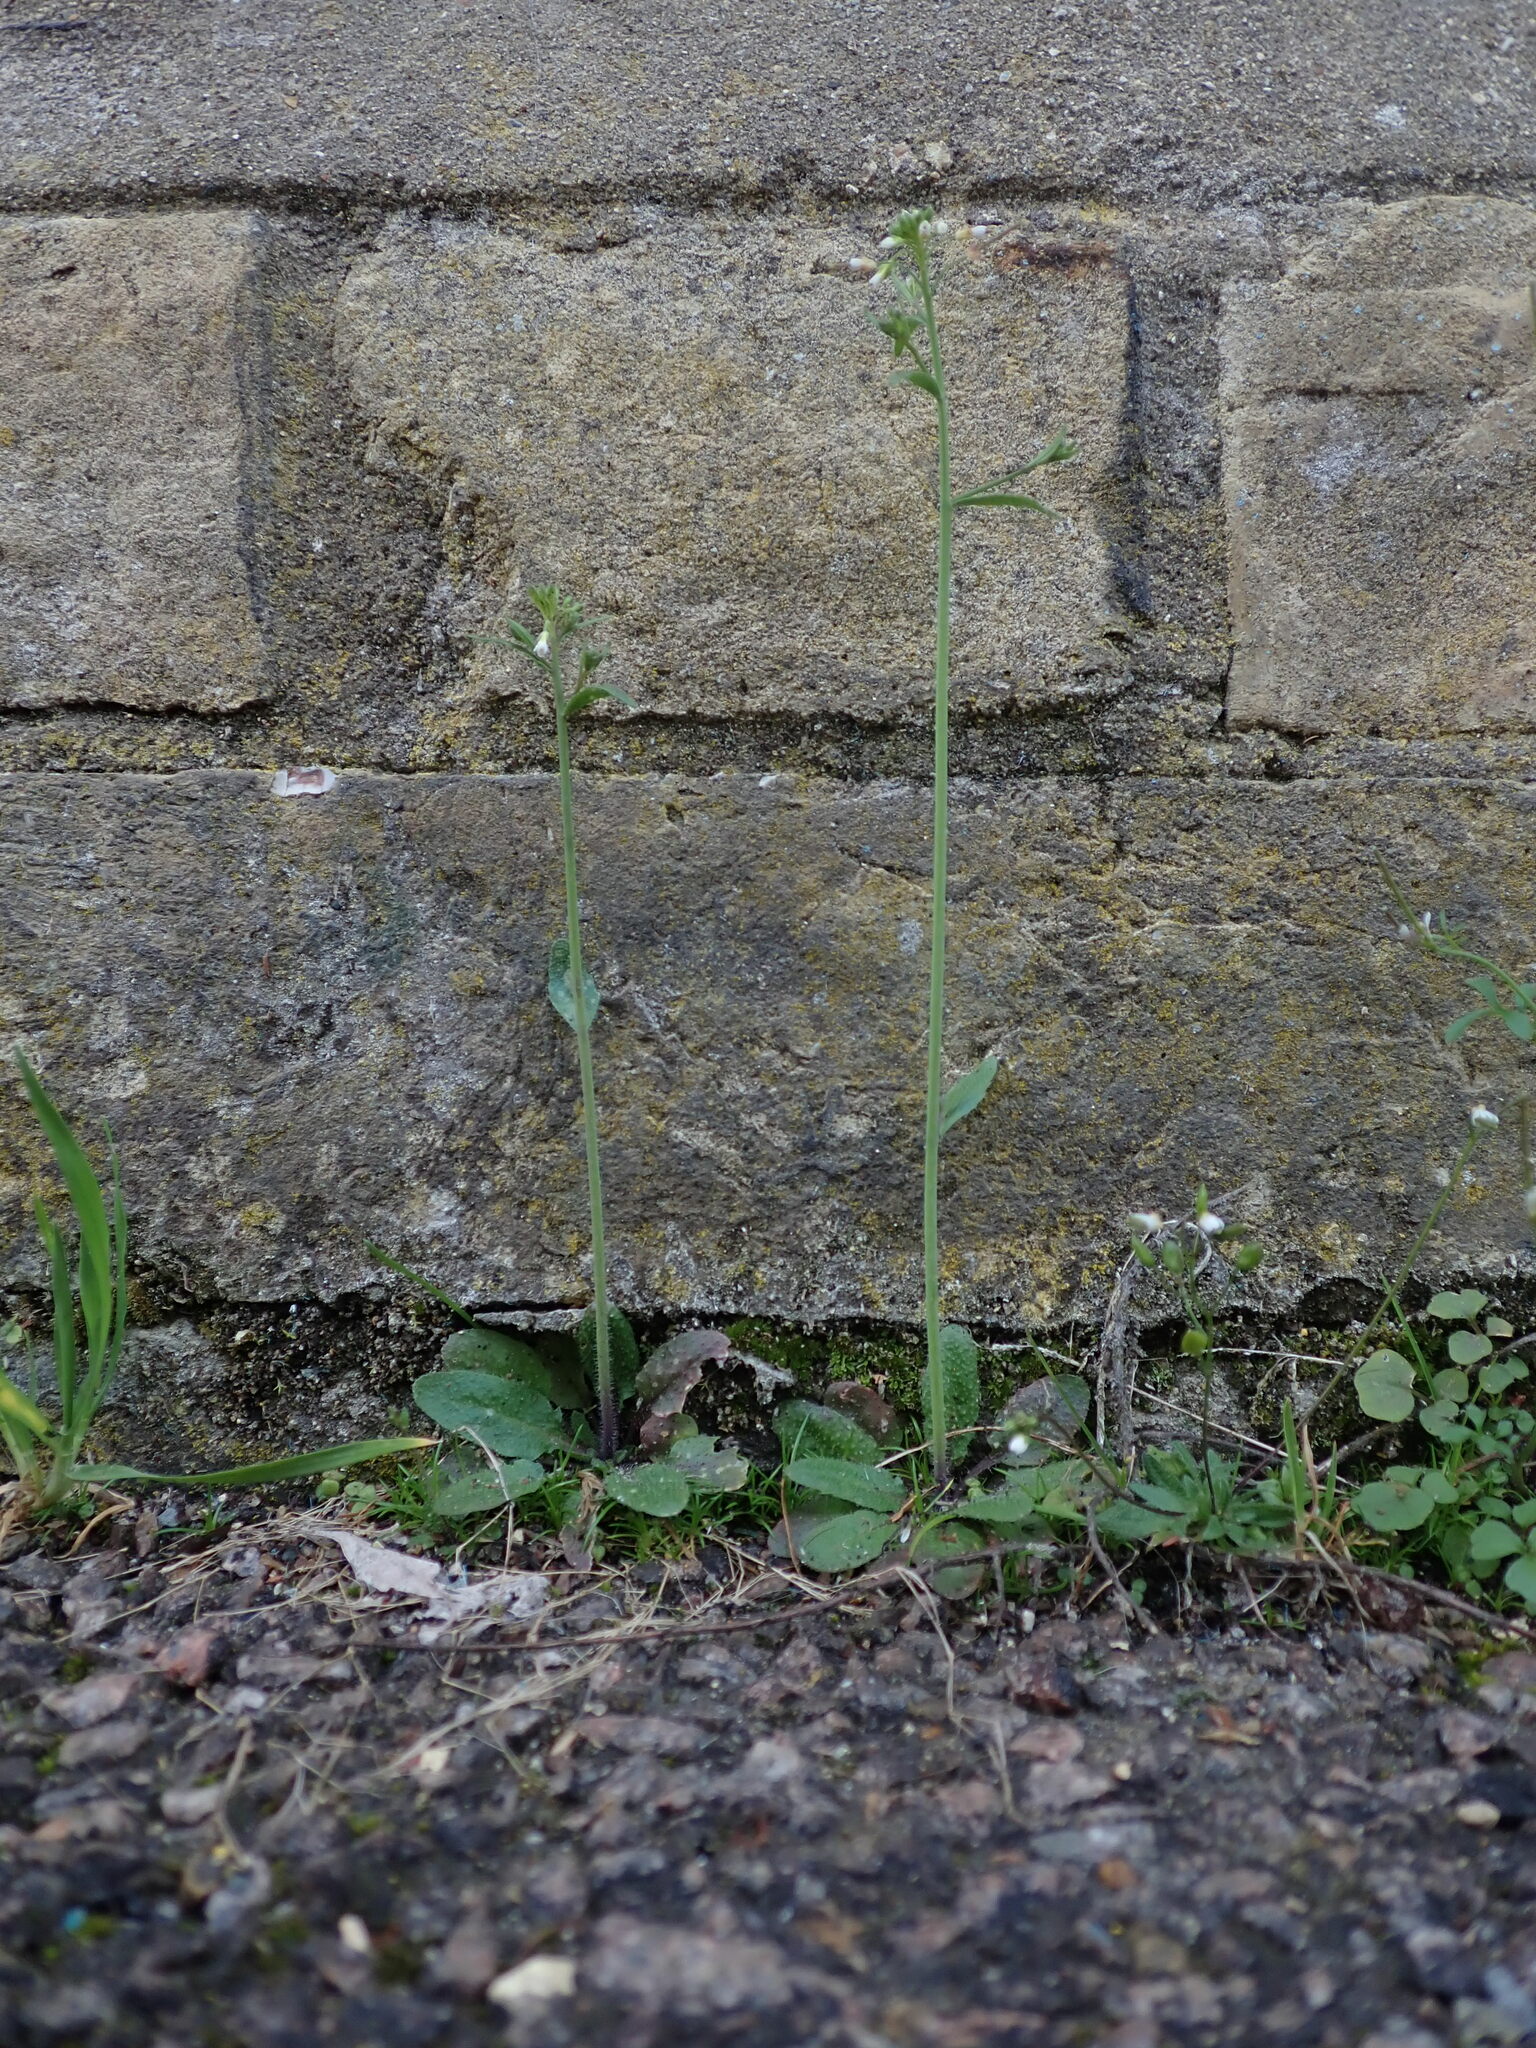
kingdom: Plantae
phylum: Tracheophyta
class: Magnoliopsida
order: Brassicales
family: Brassicaceae
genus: Arabidopsis
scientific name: Arabidopsis thaliana
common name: Thale cress
